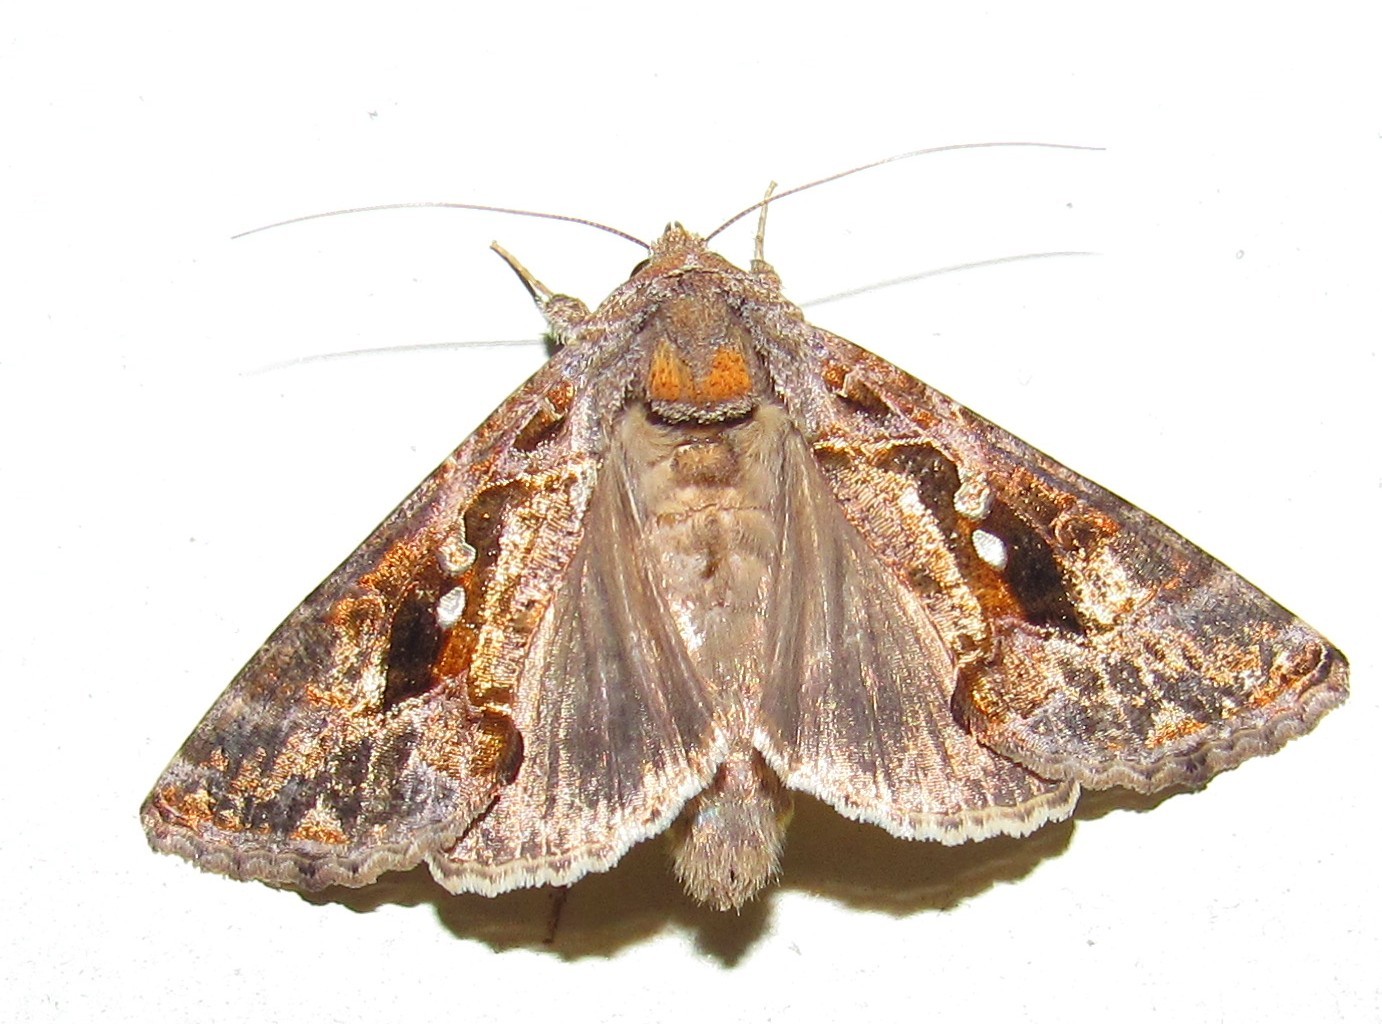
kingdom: Animalia
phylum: Arthropoda
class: Insecta
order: Lepidoptera
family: Noctuidae
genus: Chrysodeixis
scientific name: Chrysodeixis includens
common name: Cutworm moth
